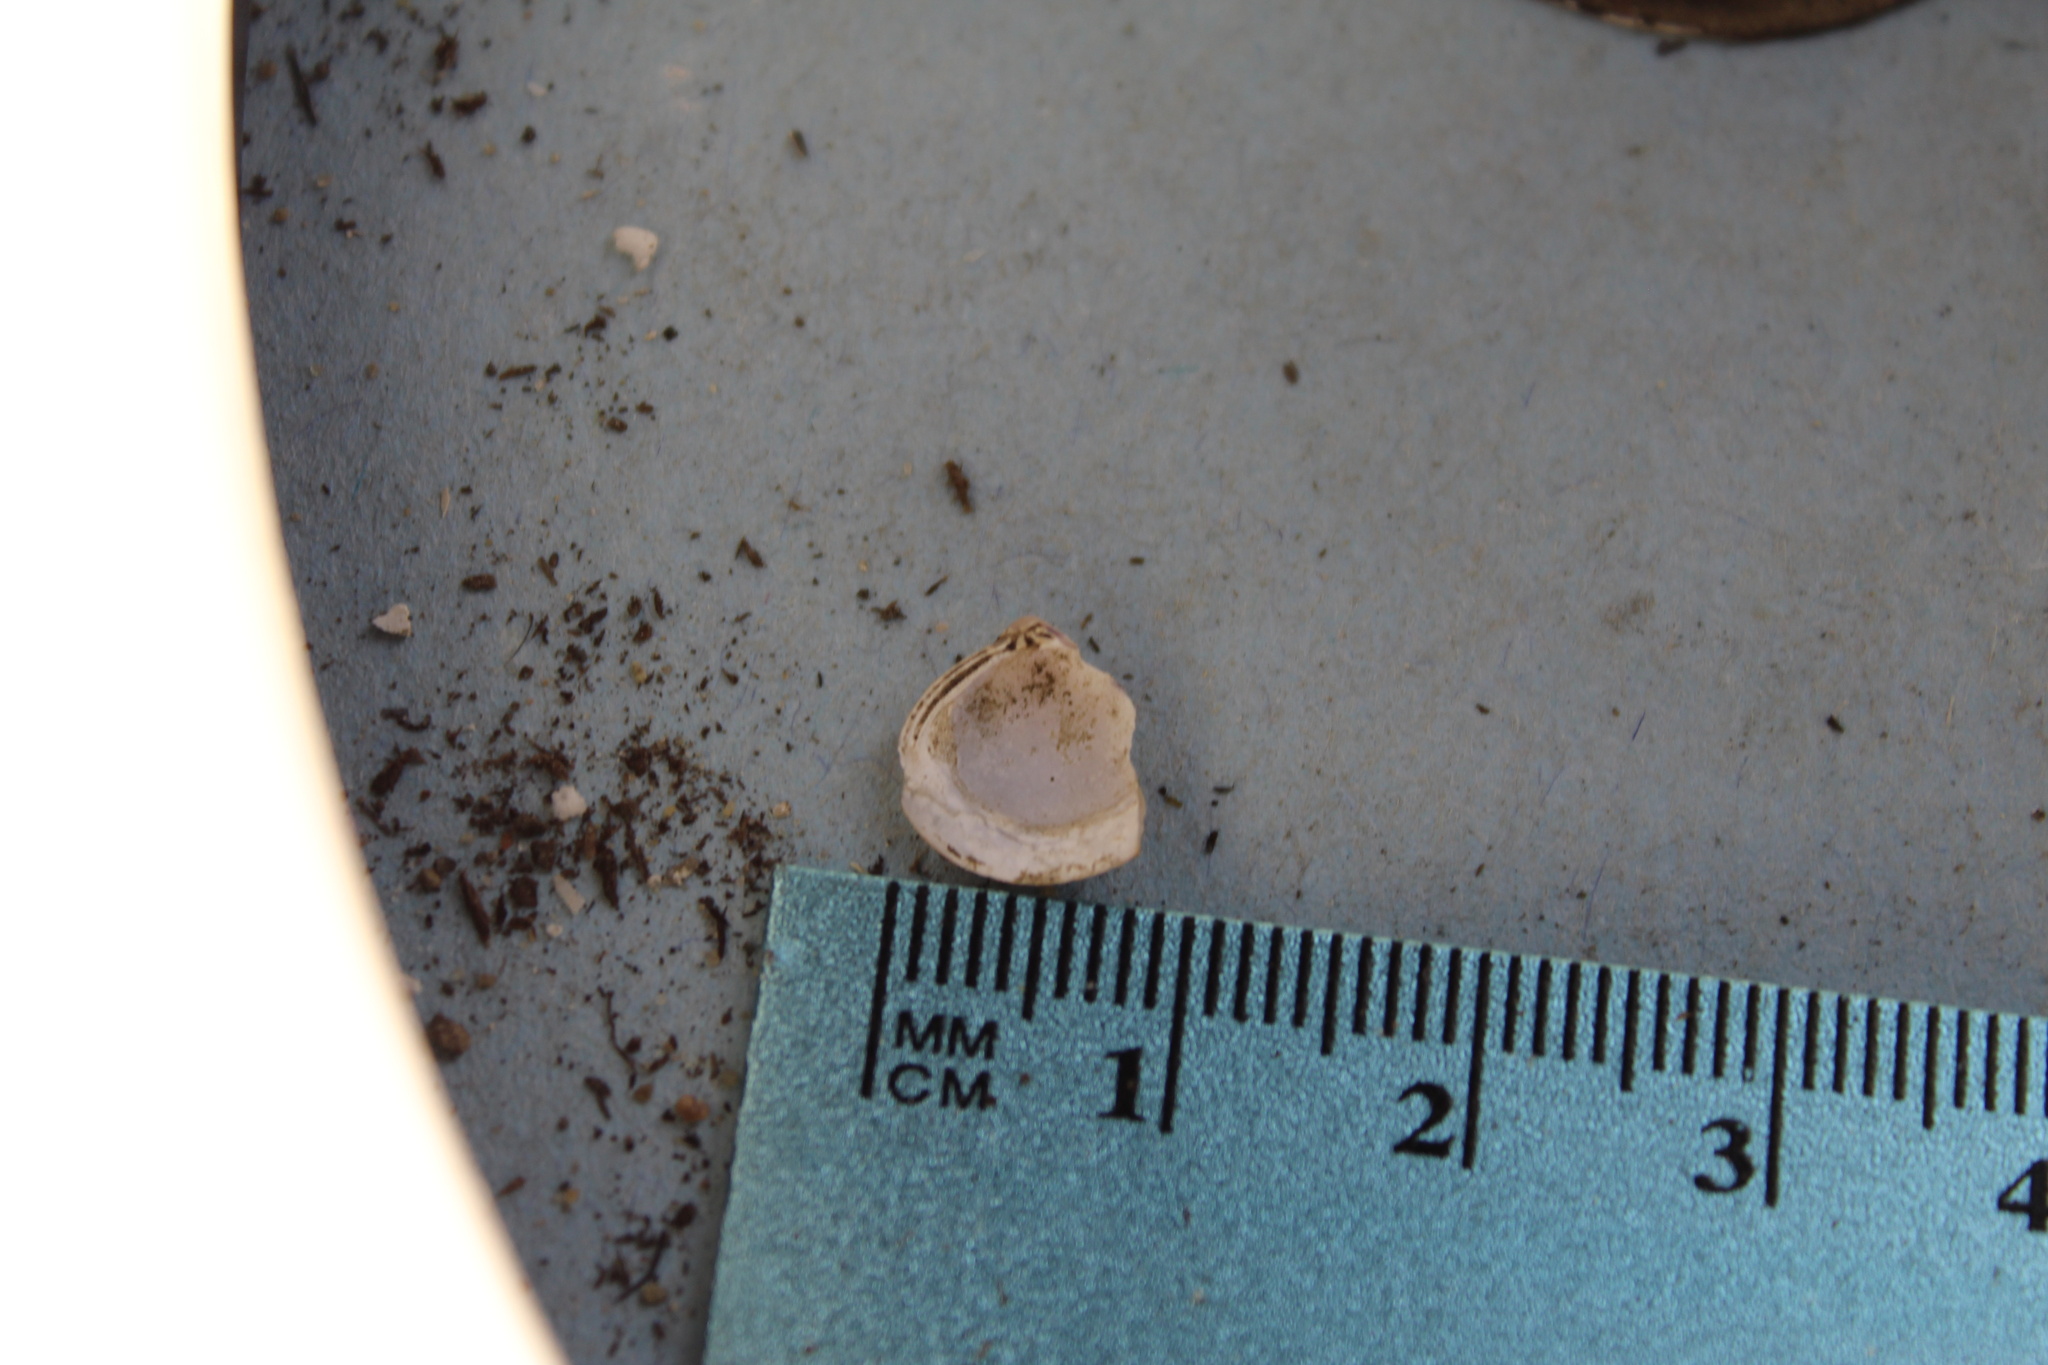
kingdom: Animalia
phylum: Mollusca
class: Bivalvia
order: Venerida
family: Cyrenidae
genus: Corbicula
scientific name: Corbicula fluminea
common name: Asian clam
